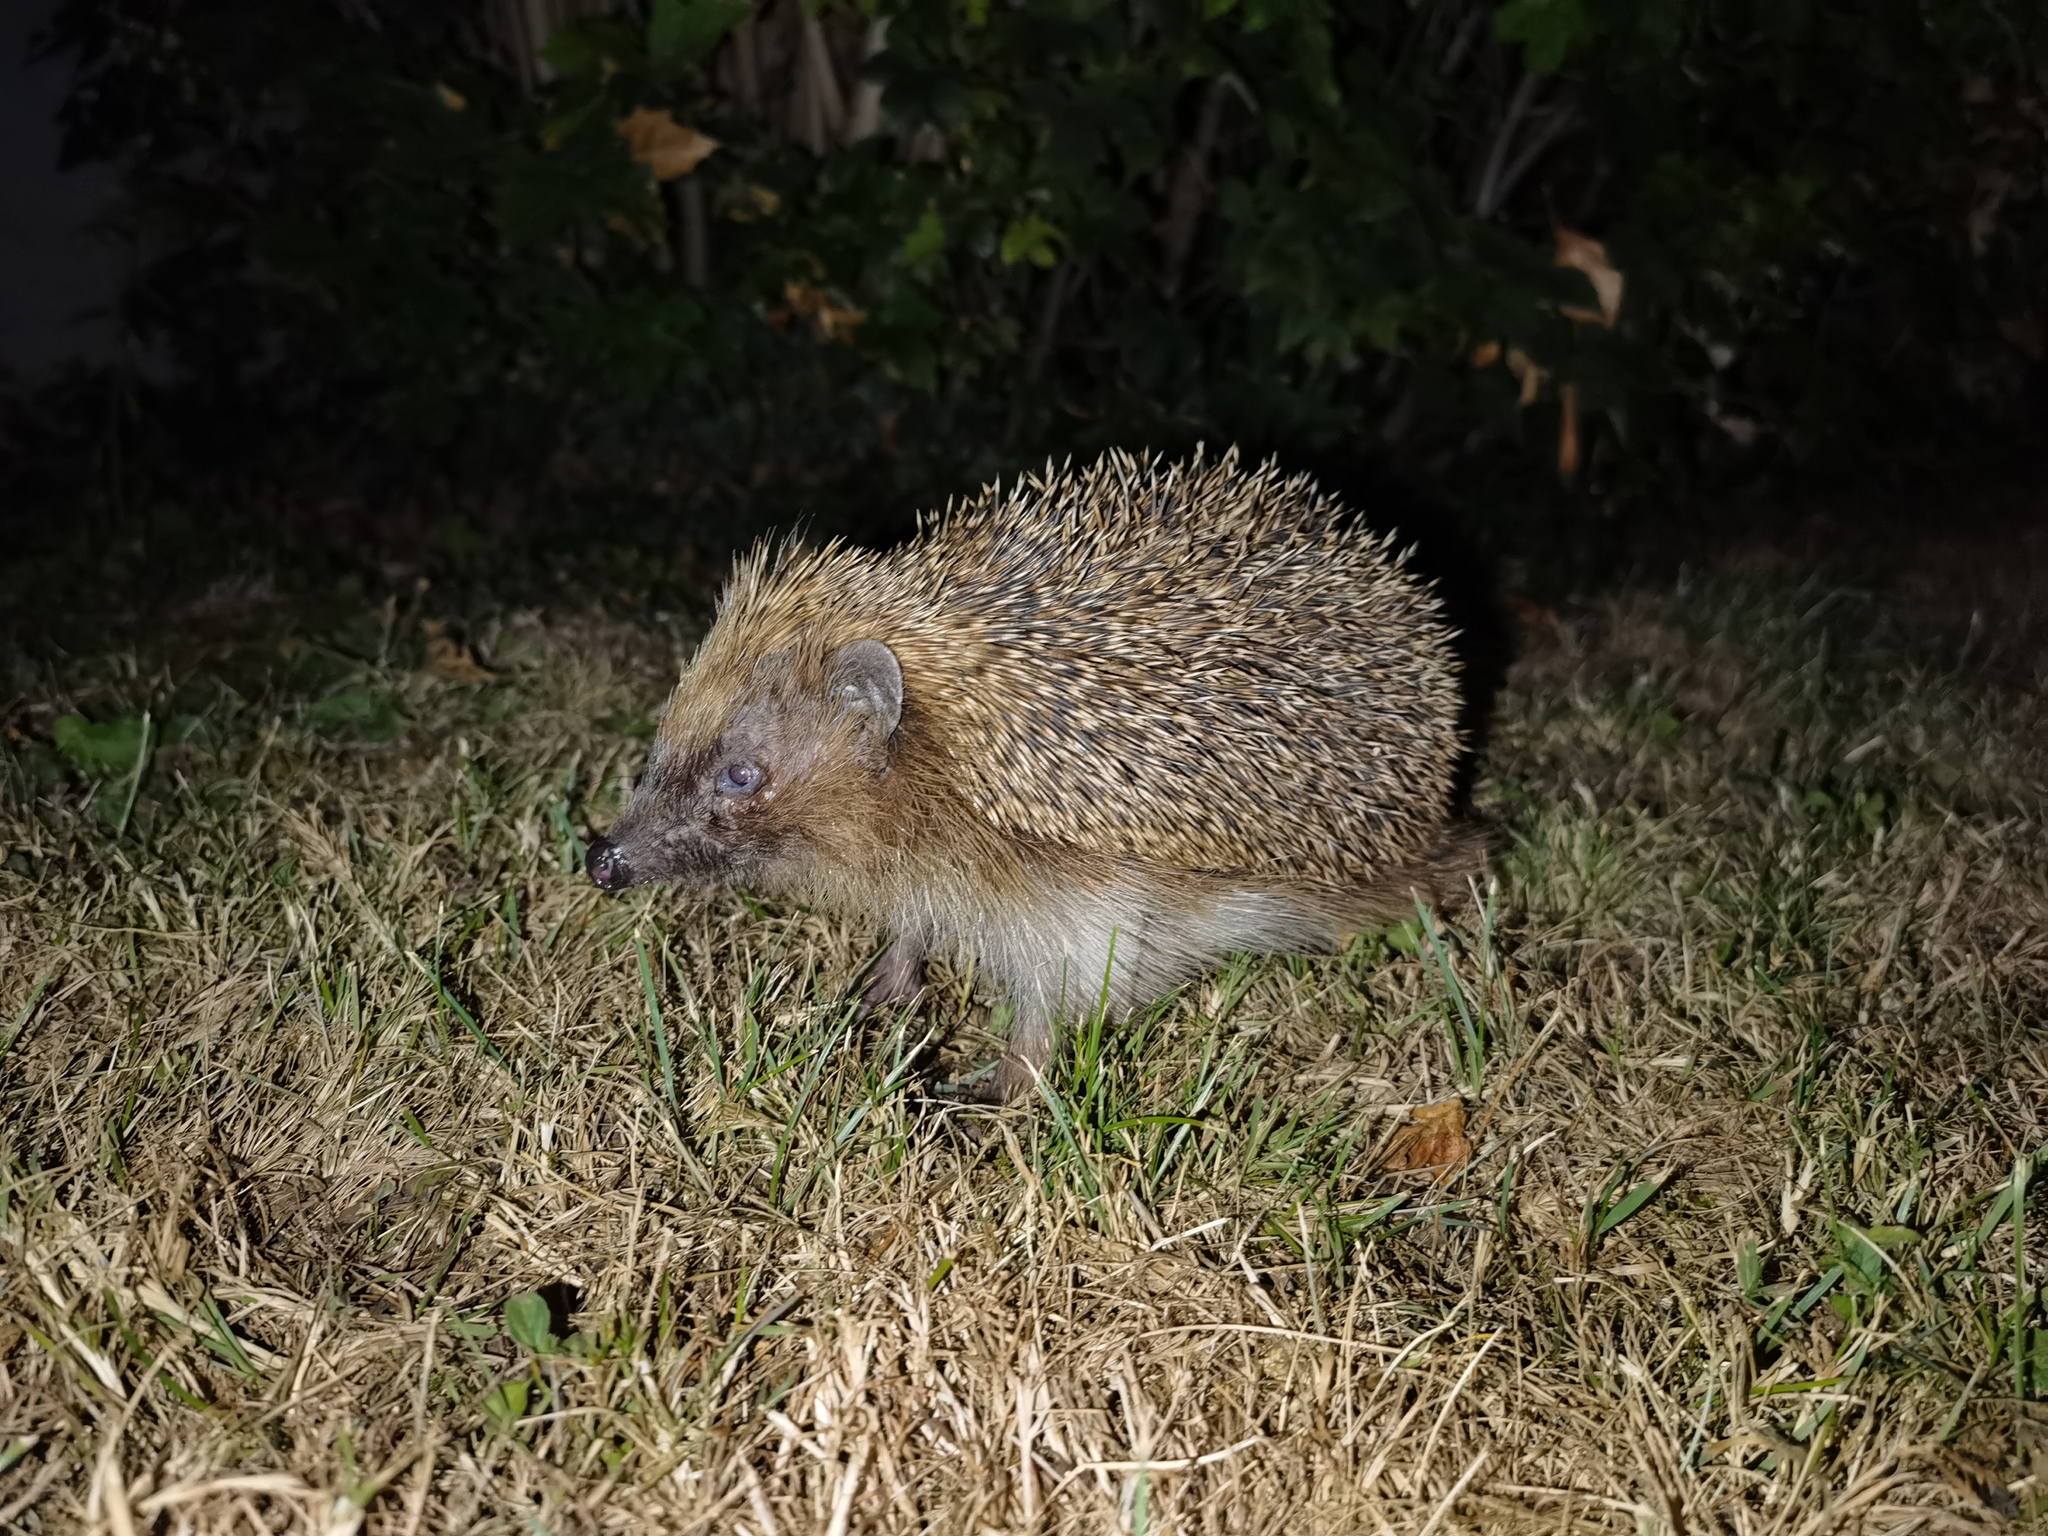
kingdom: Animalia
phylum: Chordata
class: Mammalia
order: Erinaceomorpha
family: Erinaceidae
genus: Erinaceus
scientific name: Erinaceus europaeus
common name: West european hedgehog
